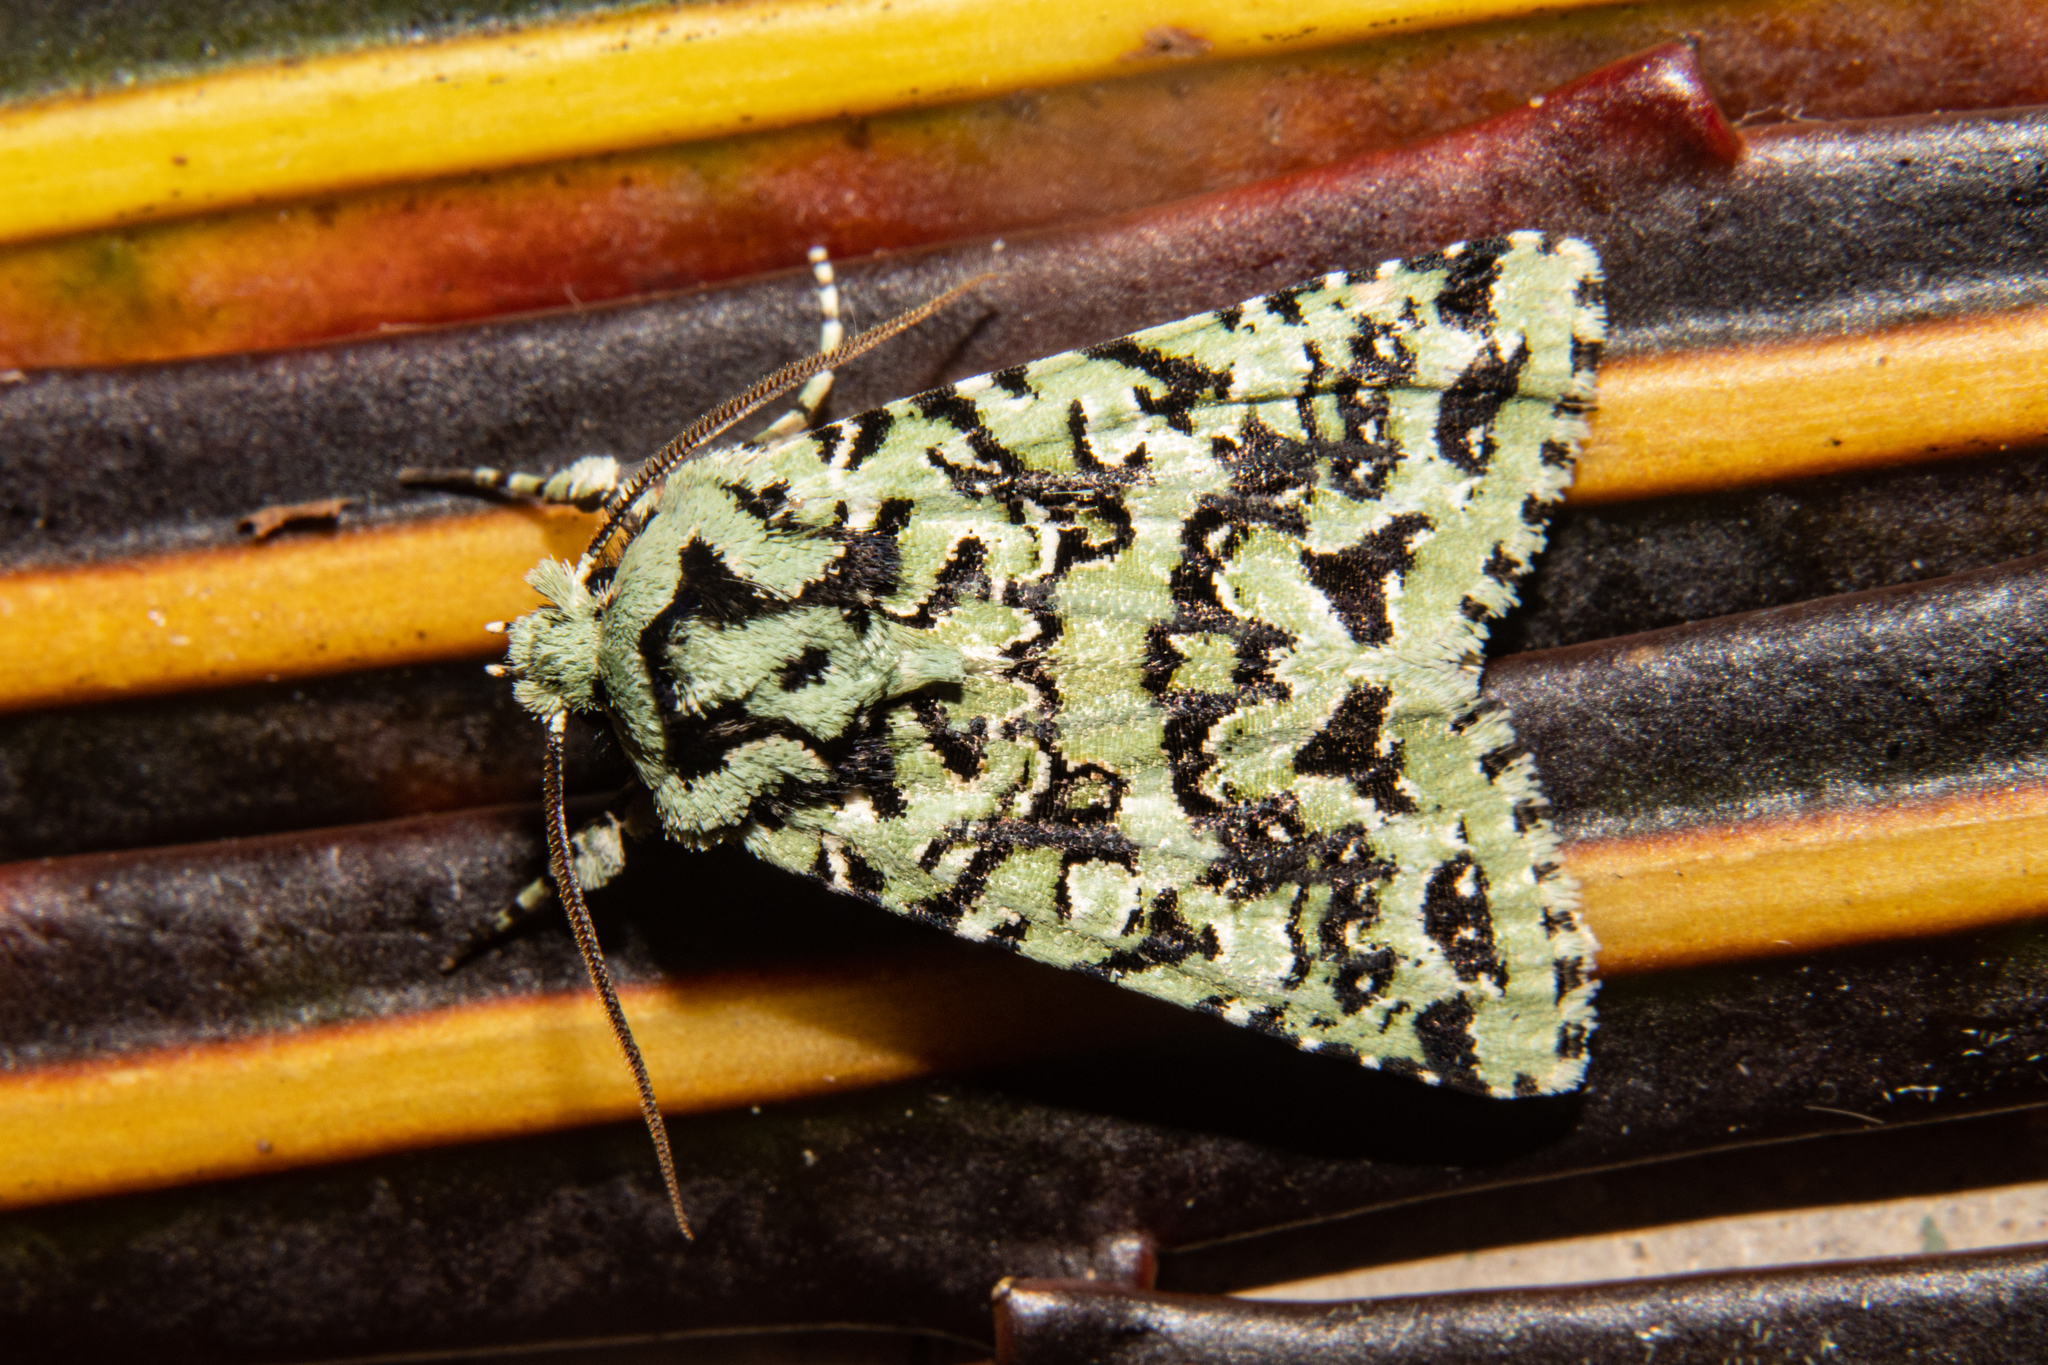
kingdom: Animalia
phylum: Arthropoda
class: Insecta
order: Lepidoptera
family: Noctuidae
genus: Meterana
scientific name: Meterana
